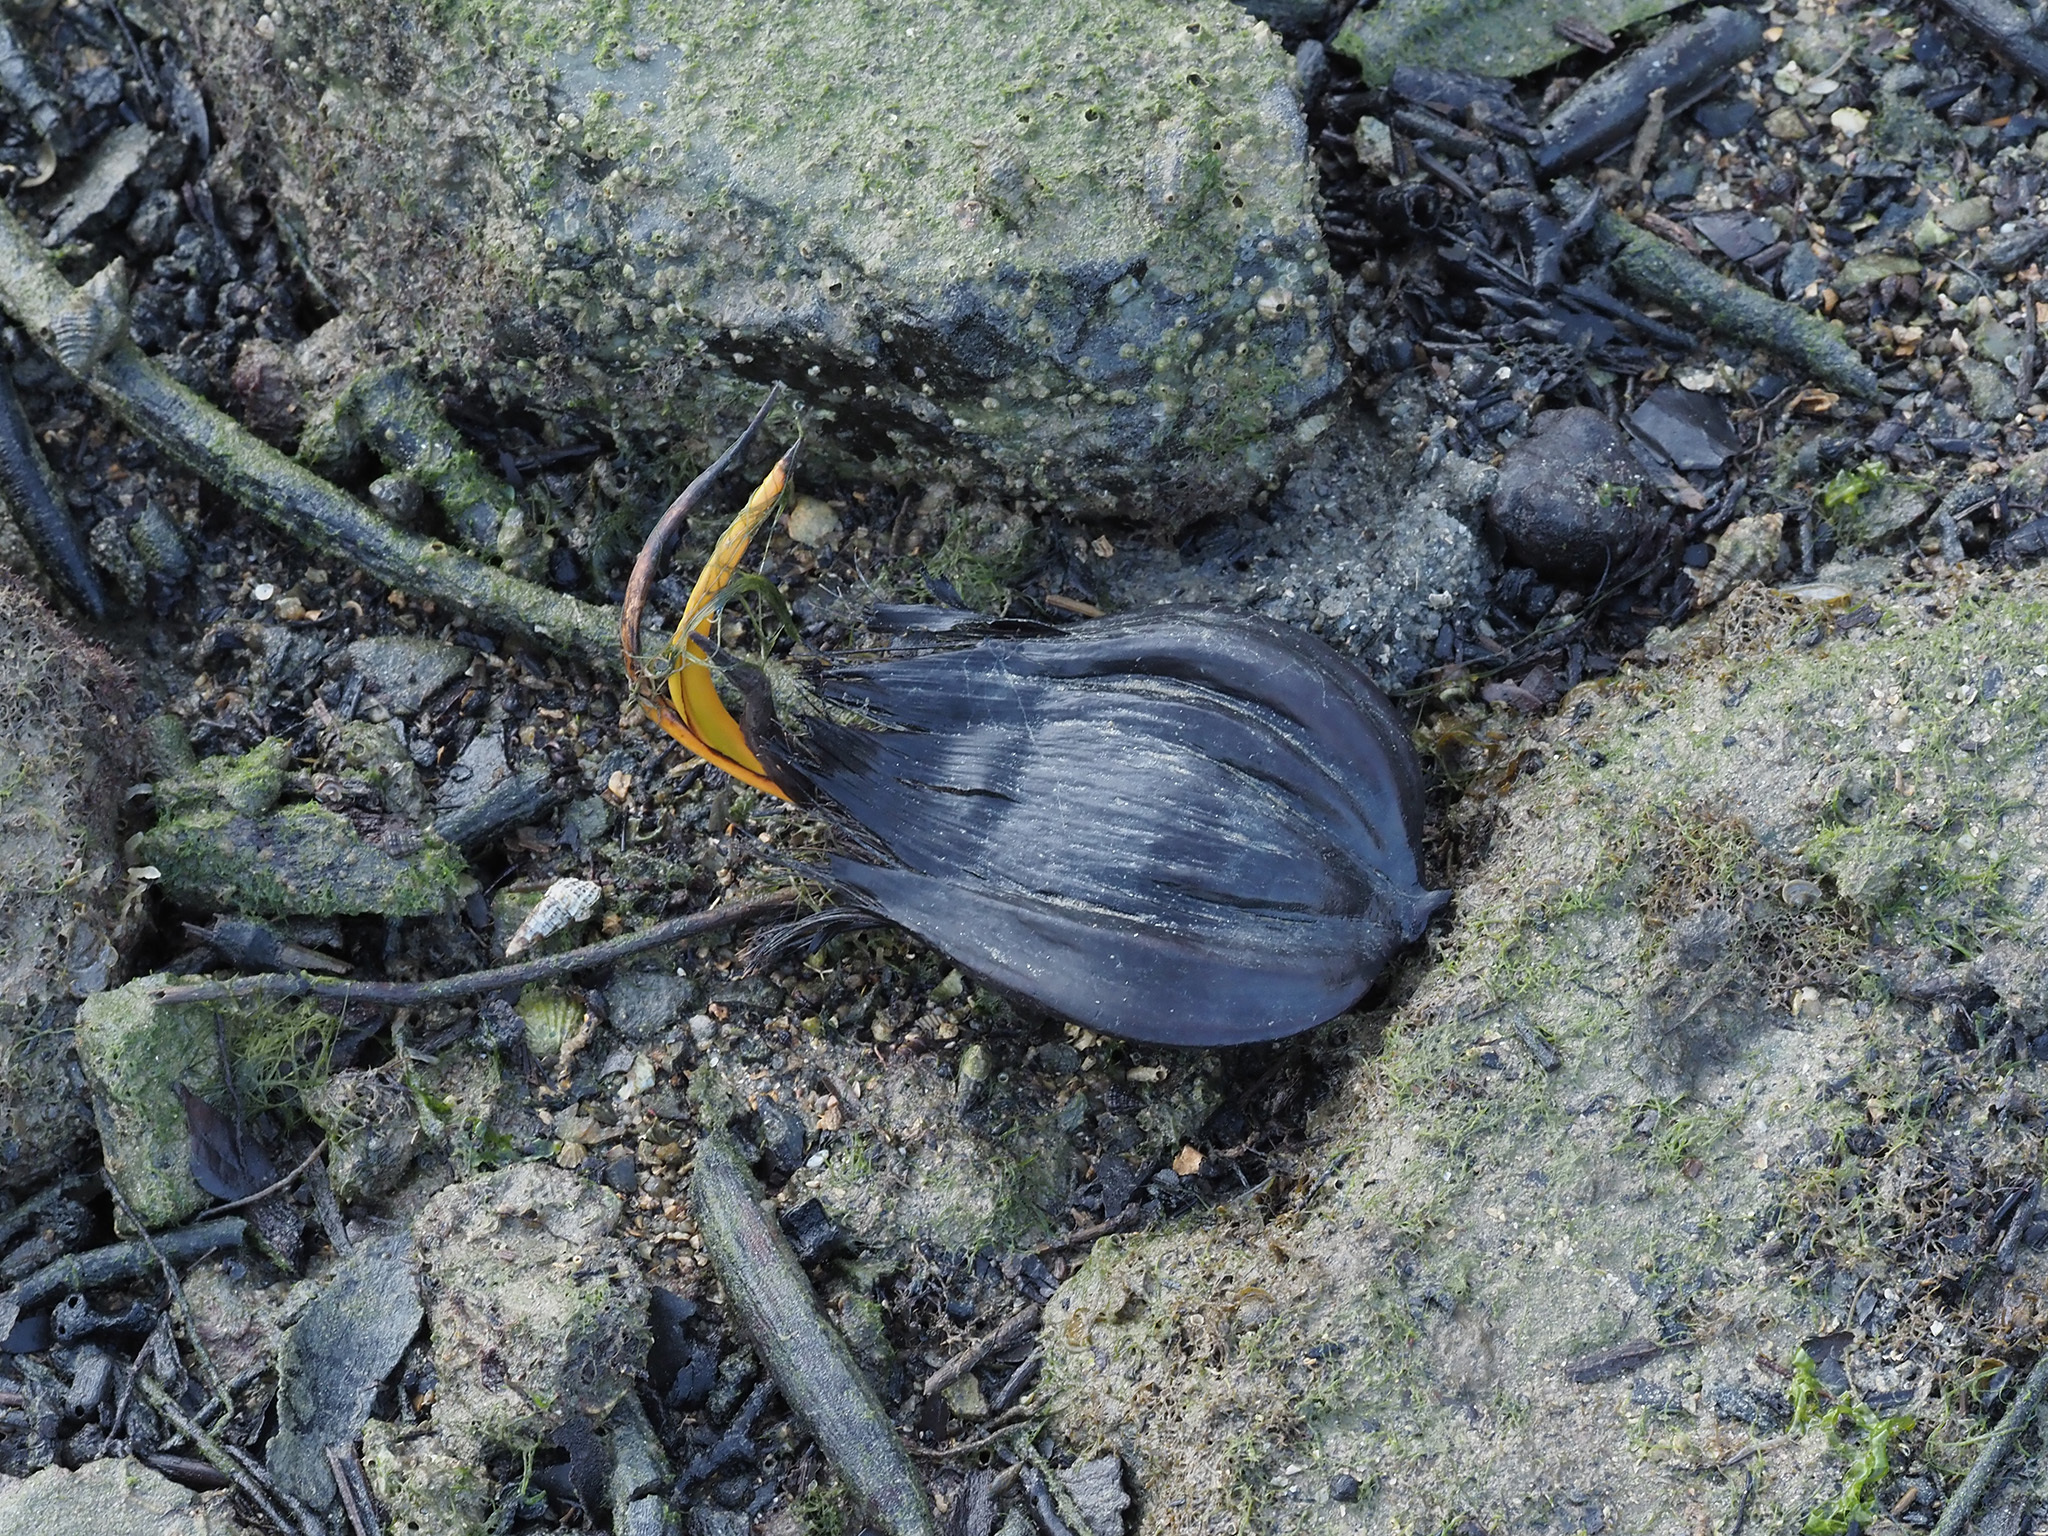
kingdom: Plantae
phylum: Tracheophyta
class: Liliopsida
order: Arecales
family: Arecaceae
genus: Nypa
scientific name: Nypa fruticans
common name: Mangrove palm
